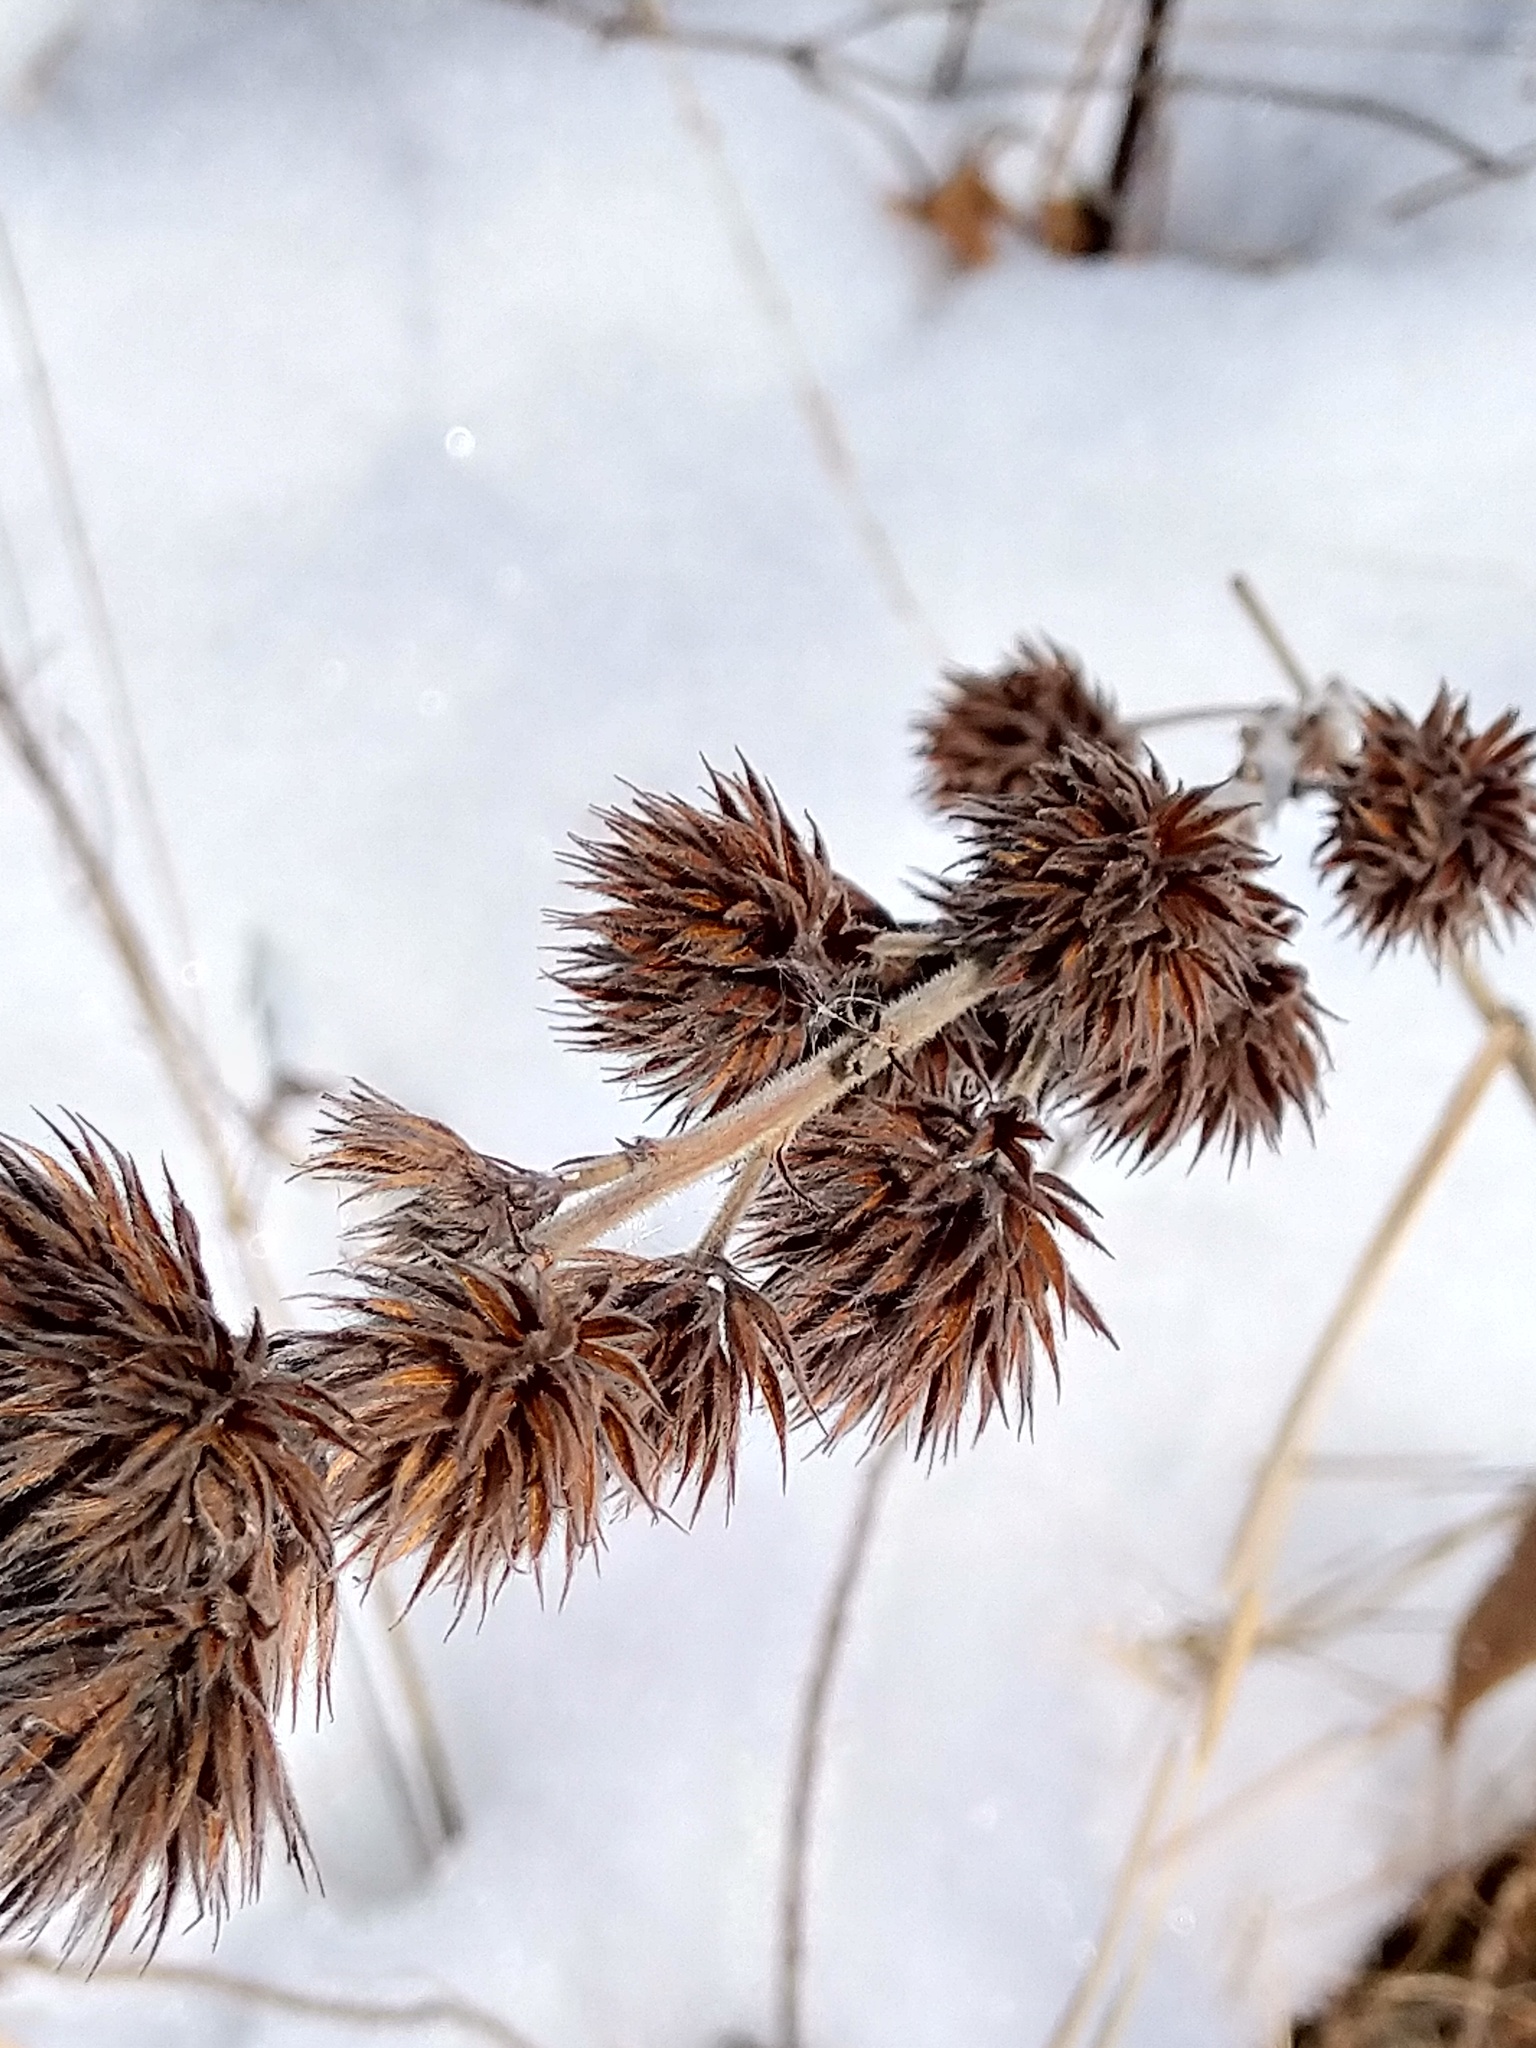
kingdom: Plantae
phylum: Tracheophyta
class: Magnoliopsida
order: Fabales
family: Fabaceae
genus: Lespedeza
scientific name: Lespedeza capitata
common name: Dusty clover
